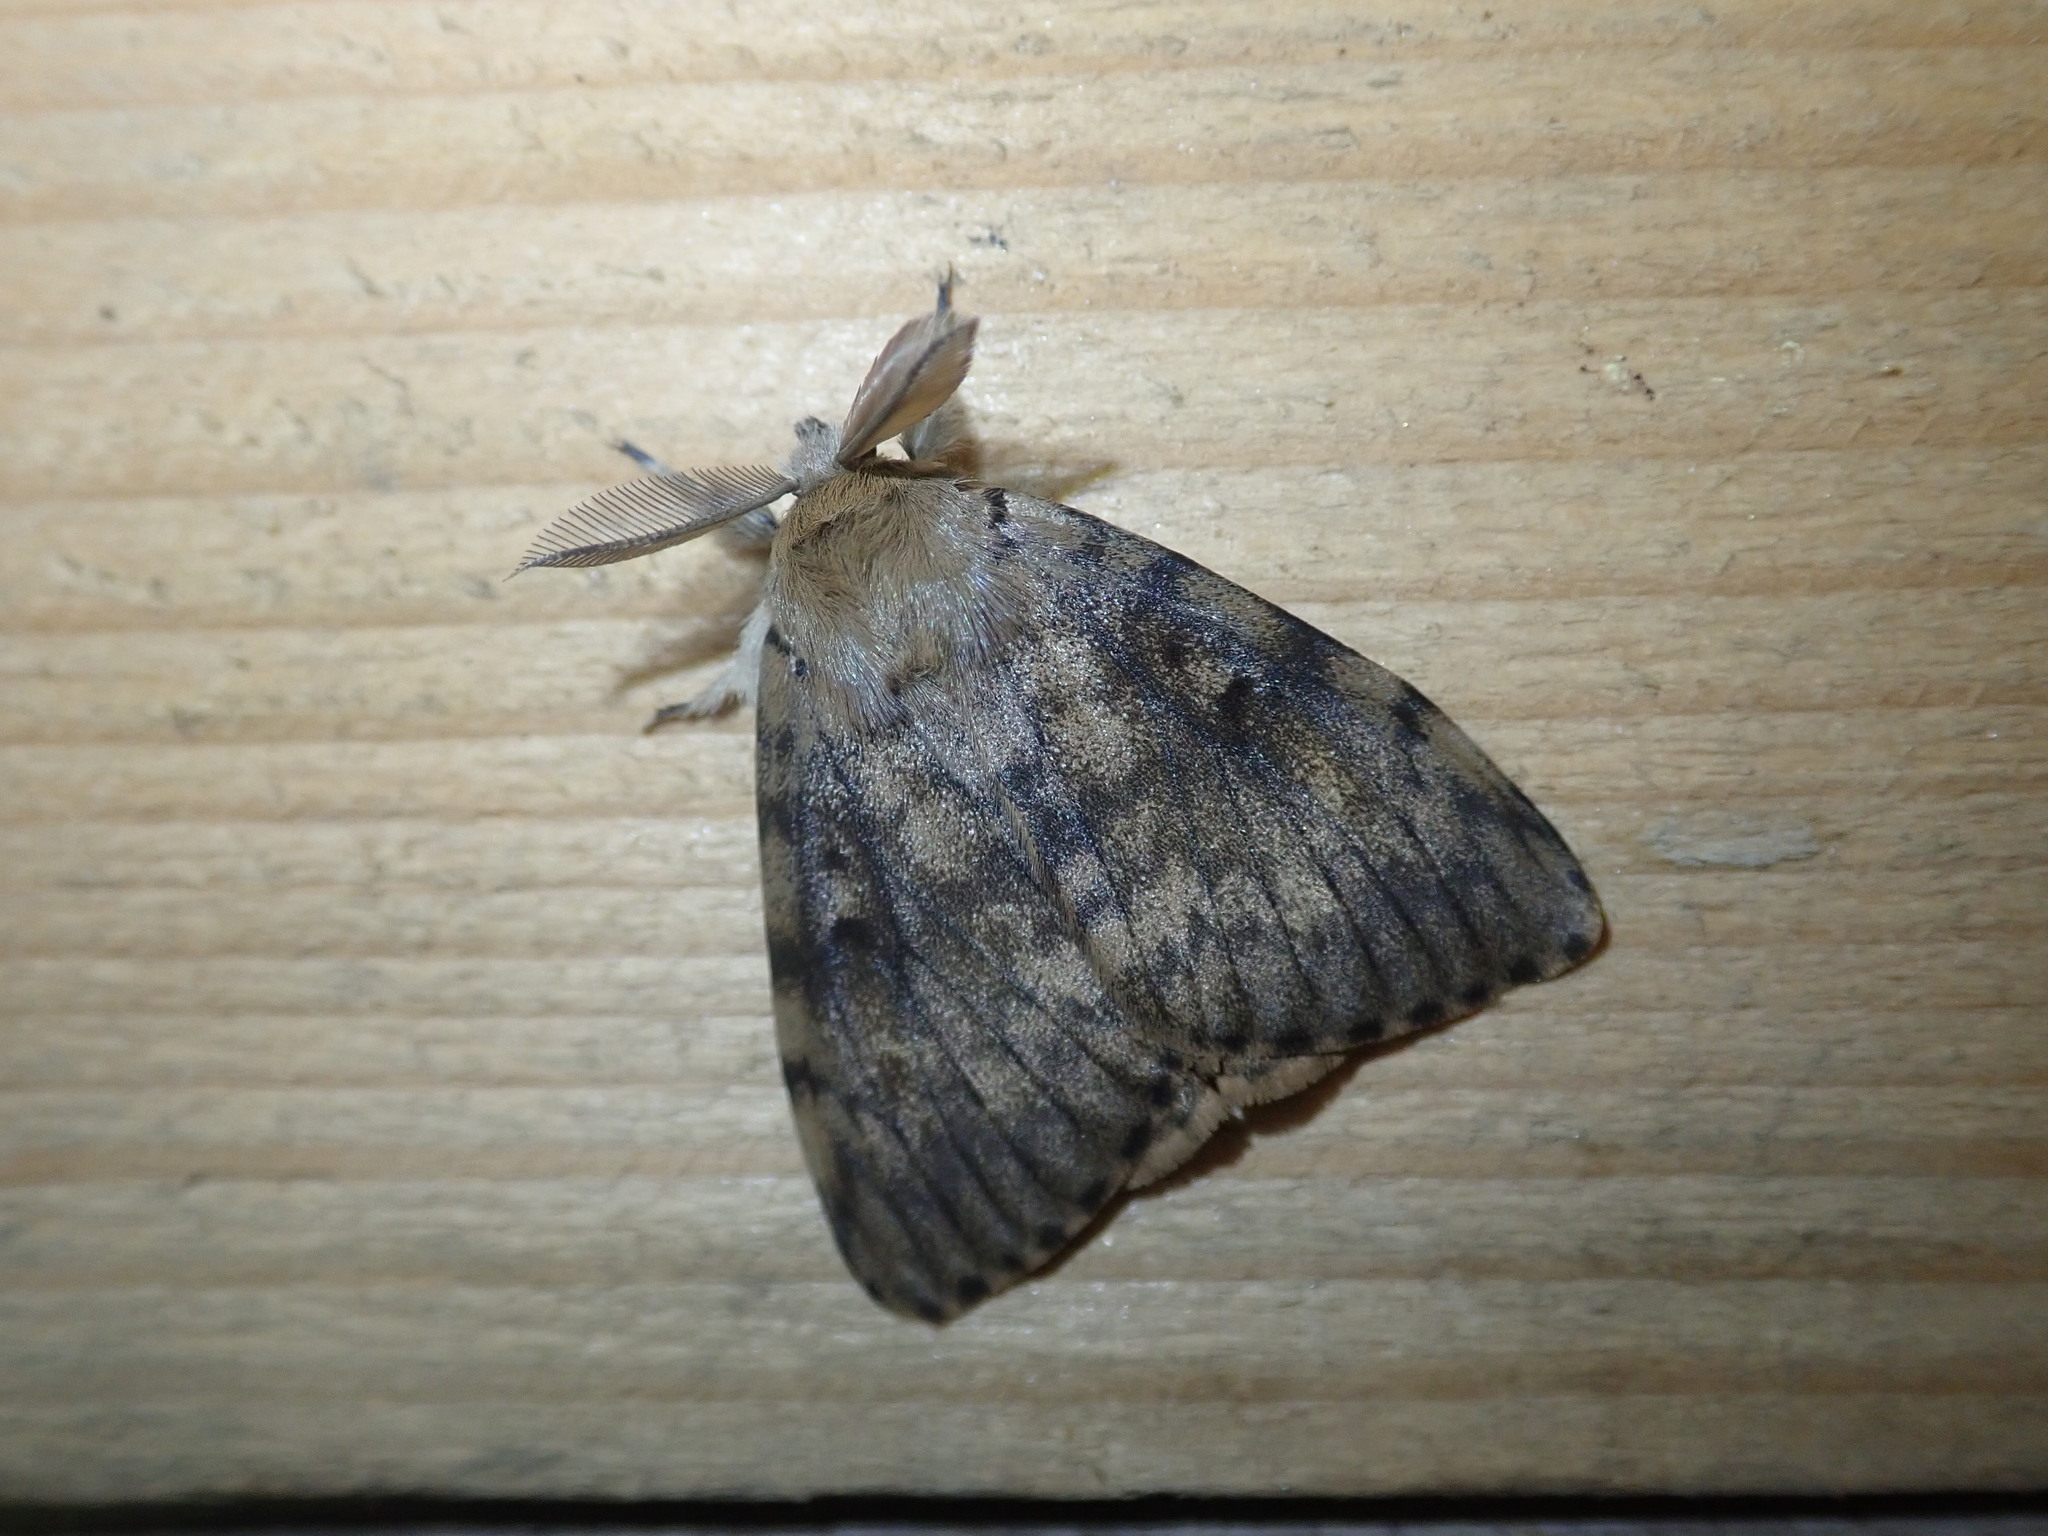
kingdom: Animalia
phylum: Arthropoda
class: Insecta
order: Lepidoptera
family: Erebidae
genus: Lymantria
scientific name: Lymantria dispar
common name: Gypsy moth
